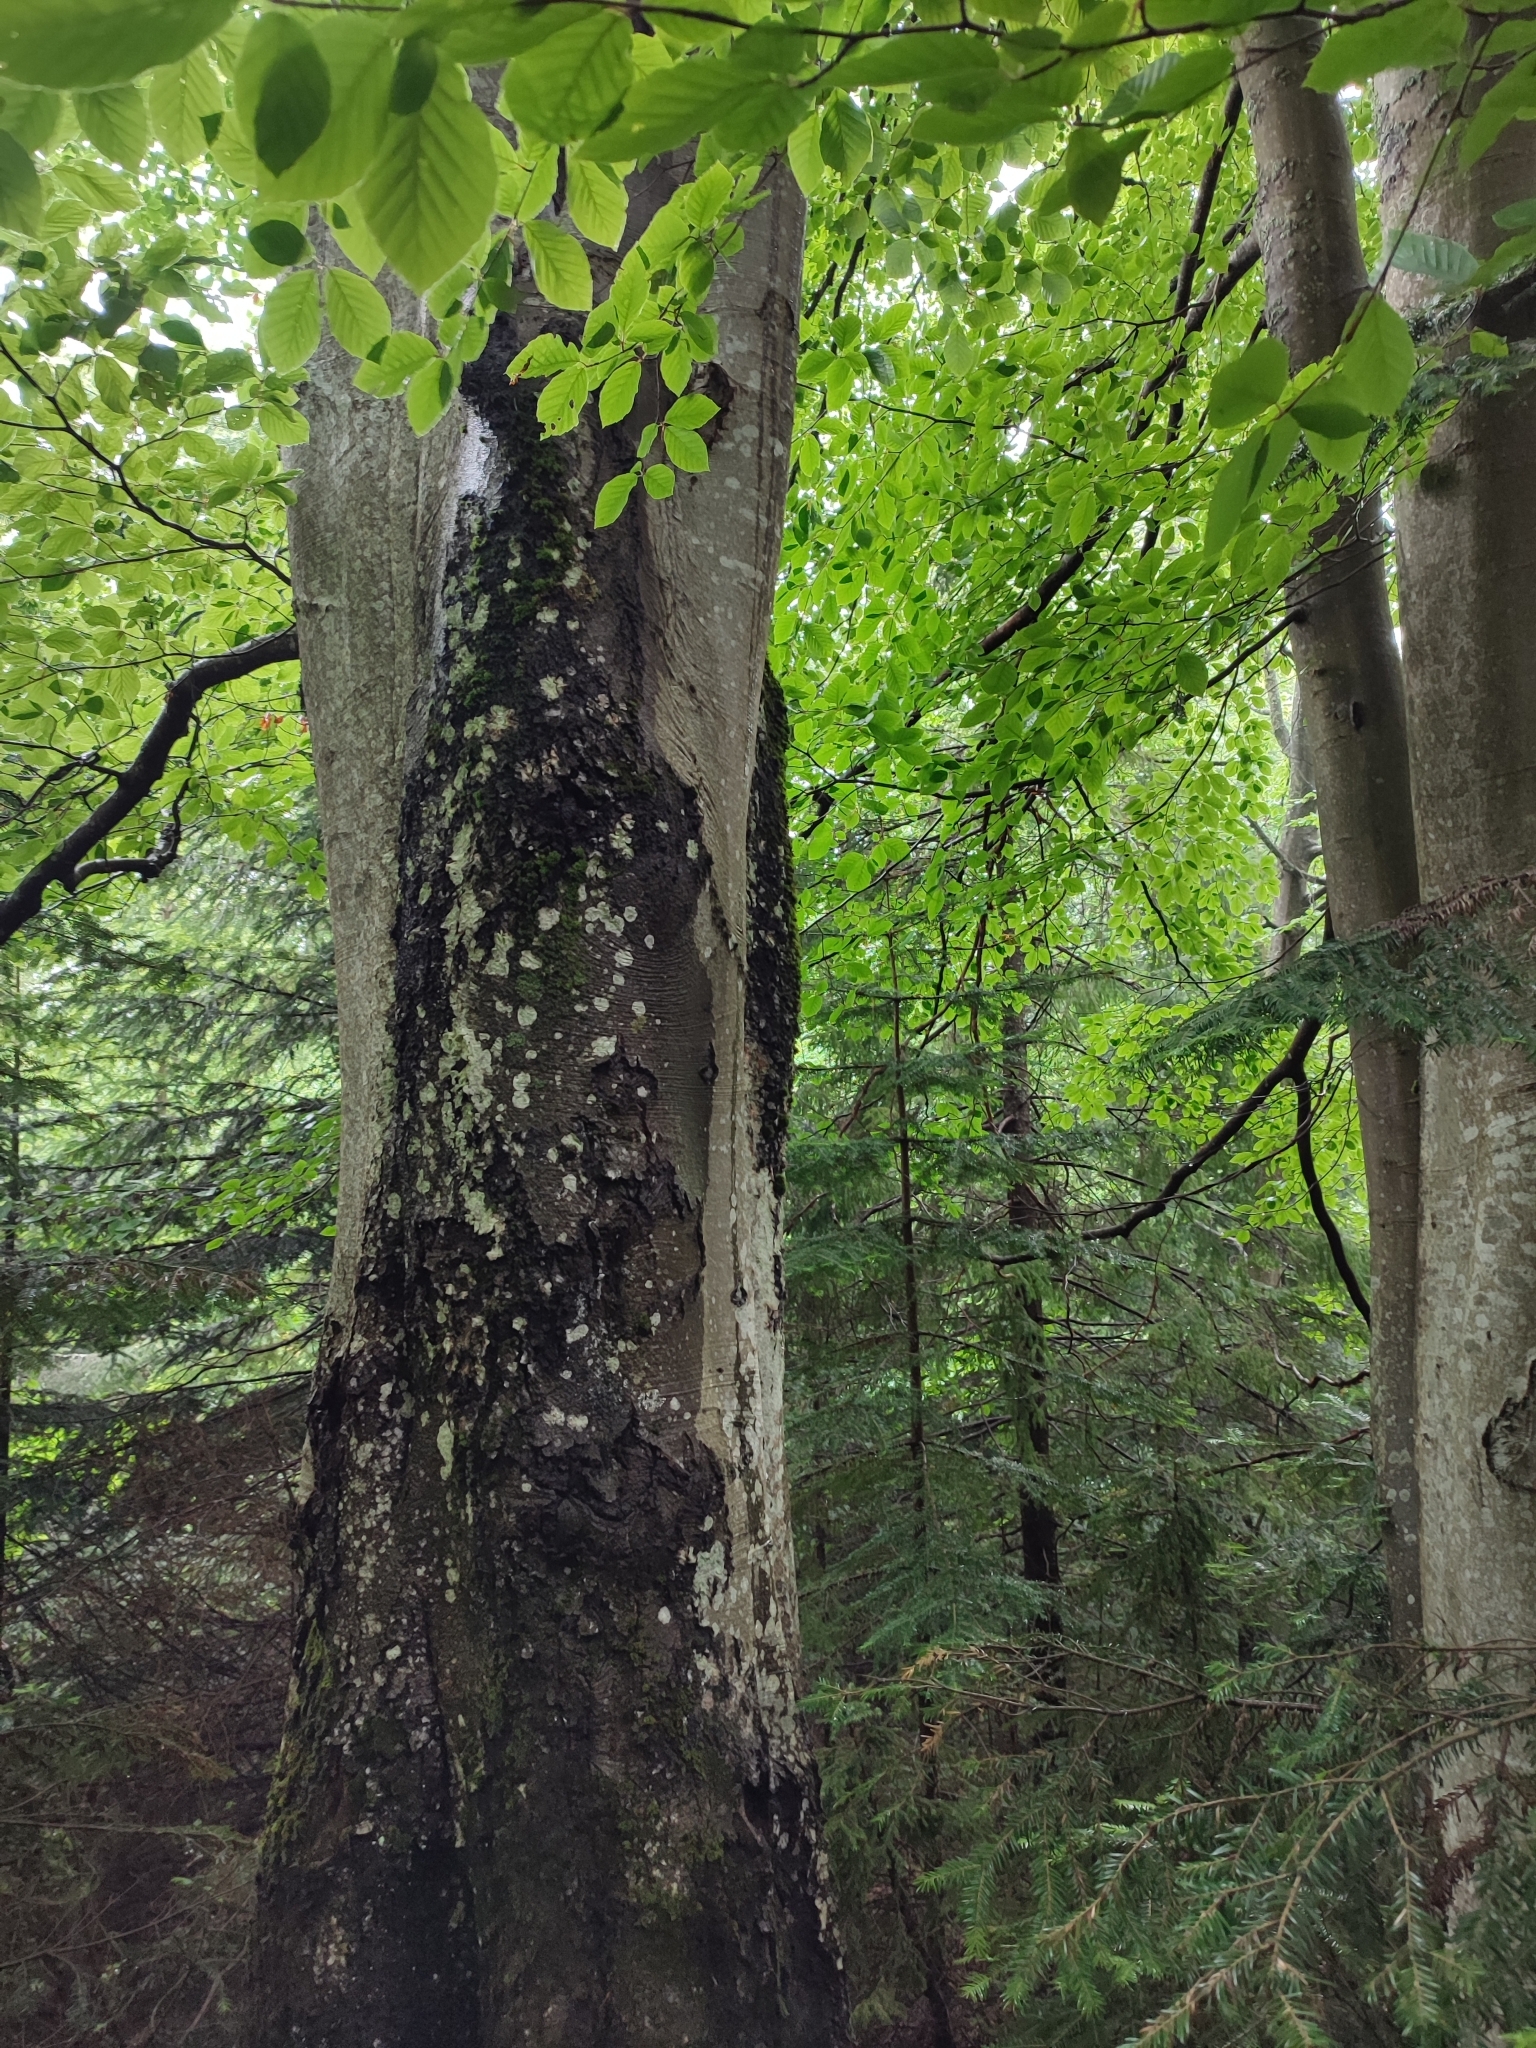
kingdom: Plantae
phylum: Tracheophyta
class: Magnoliopsida
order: Fagales
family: Fagaceae
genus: Fagus
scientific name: Fagus sylvatica
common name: Beech
